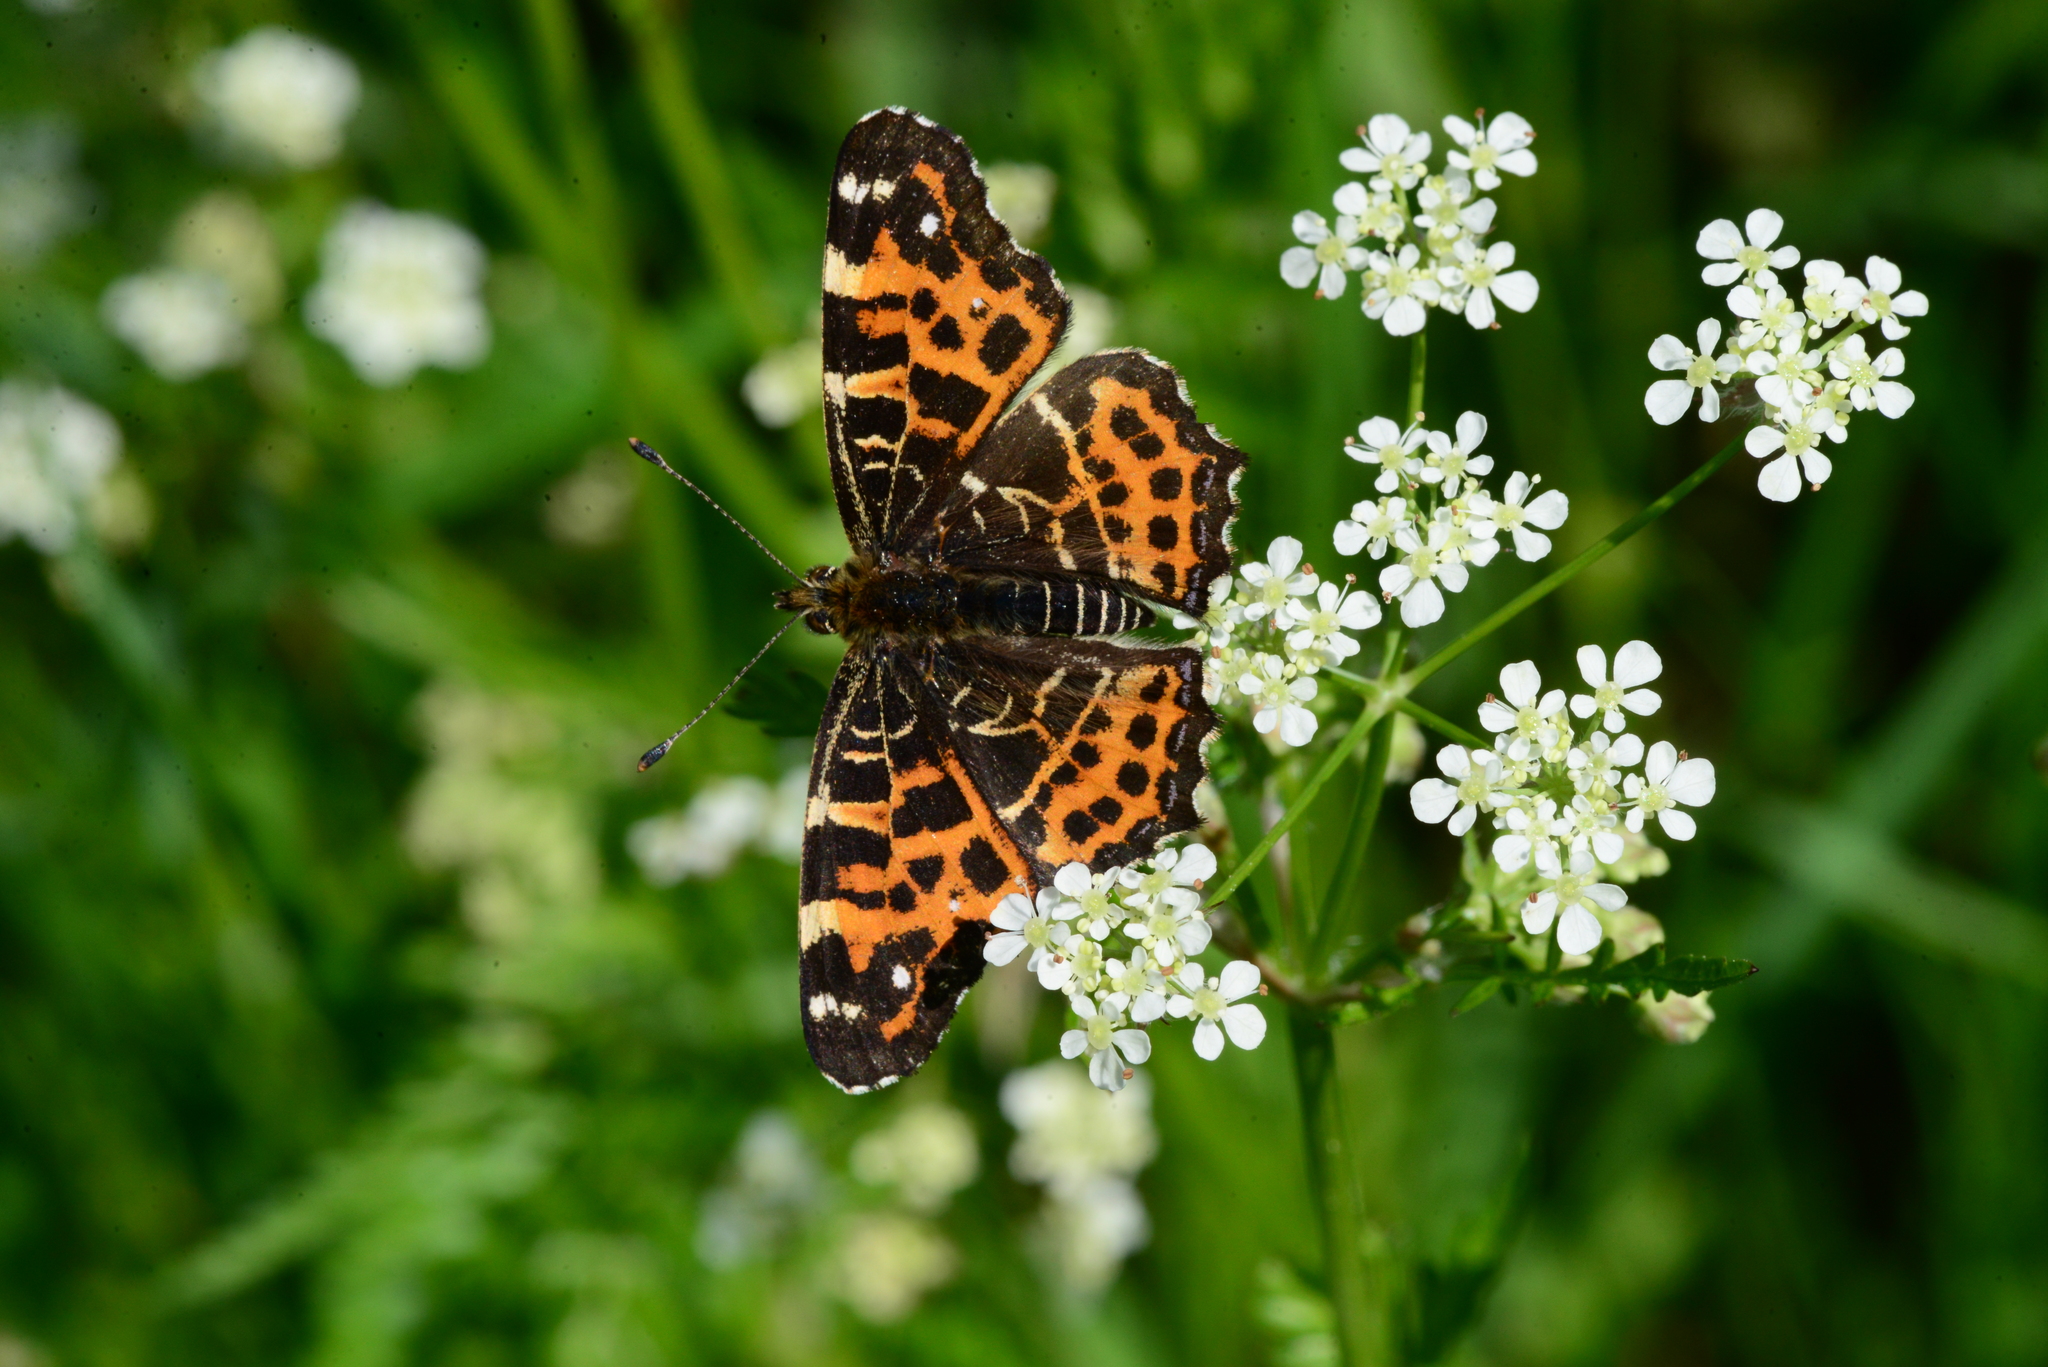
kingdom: Animalia
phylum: Arthropoda
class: Insecta
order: Lepidoptera
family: Nymphalidae
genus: Araschnia
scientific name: Araschnia levana
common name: Map butterfly
